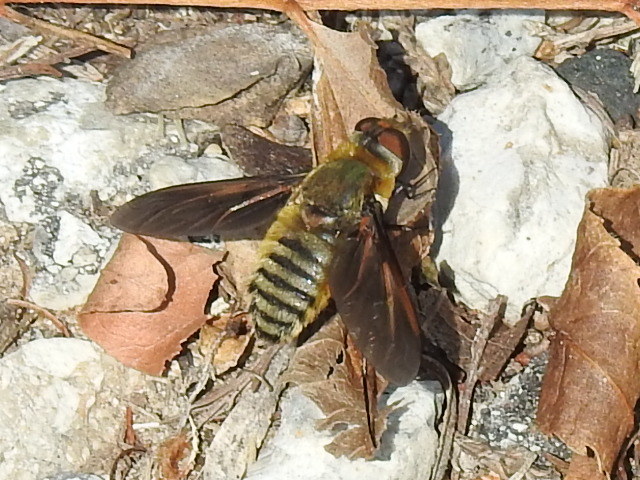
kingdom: Animalia
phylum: Arthropoda
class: Insecta
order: Diptera
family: Bombyliidae
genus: Poecilanthrax
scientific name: Poecilanthrax lucifer
